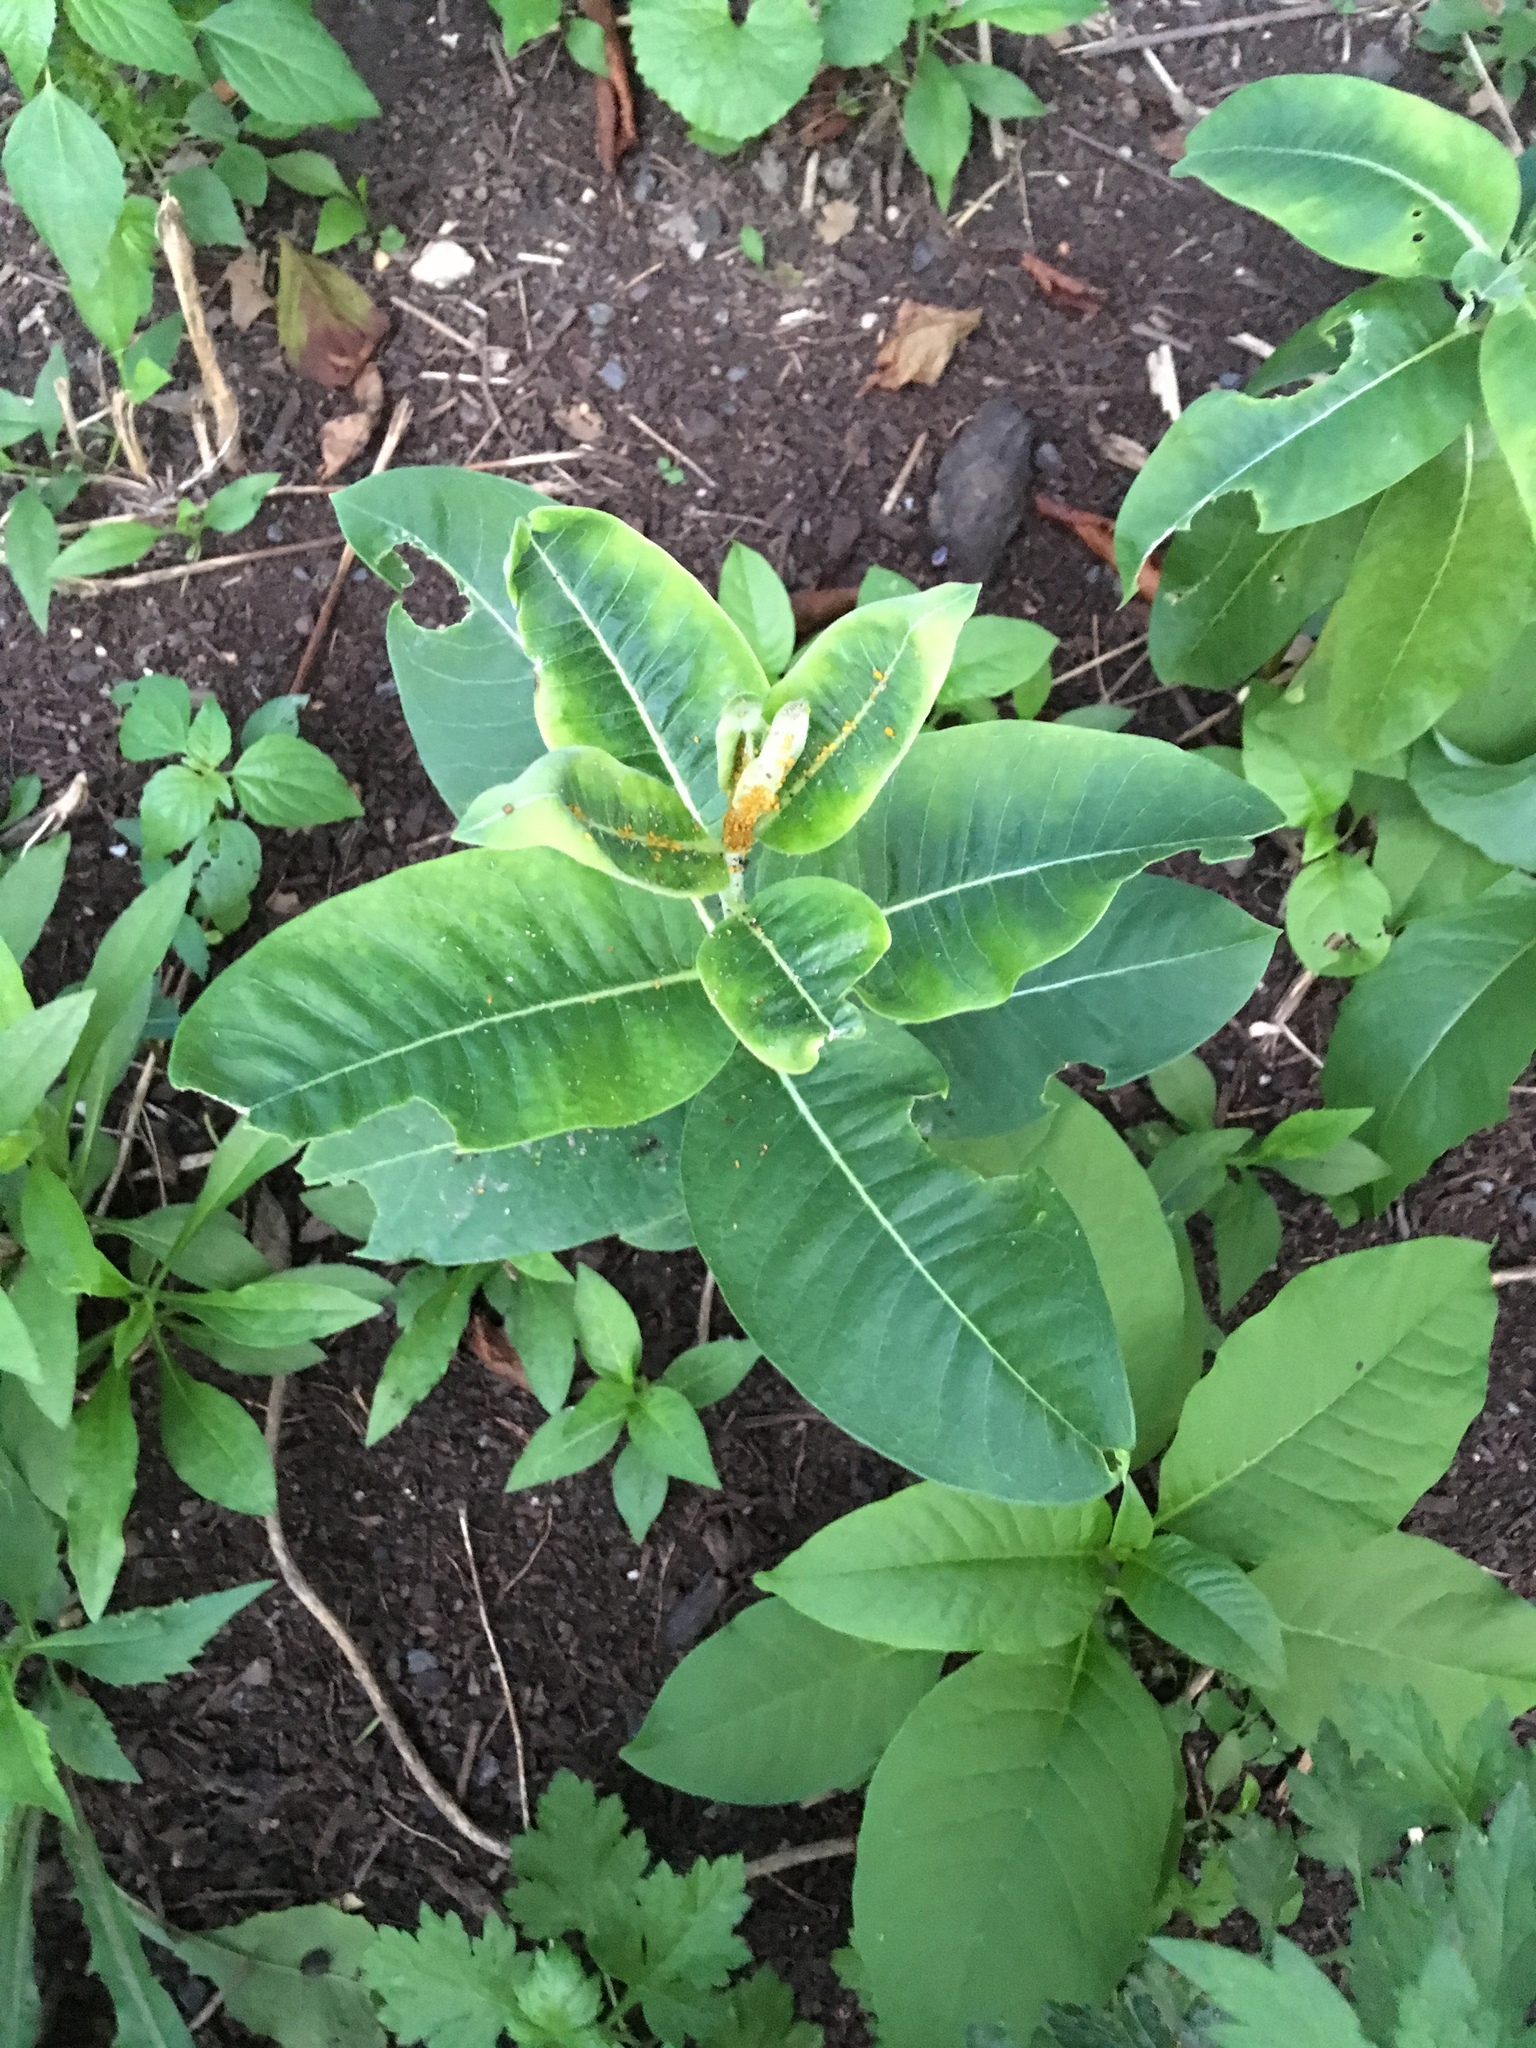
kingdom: Plantae
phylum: Tracheophyta
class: Magnoliopsida
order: Gentianales
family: Apocynaceae
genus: Asclepias
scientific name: Asclepias syriaca
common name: Common milkweed
